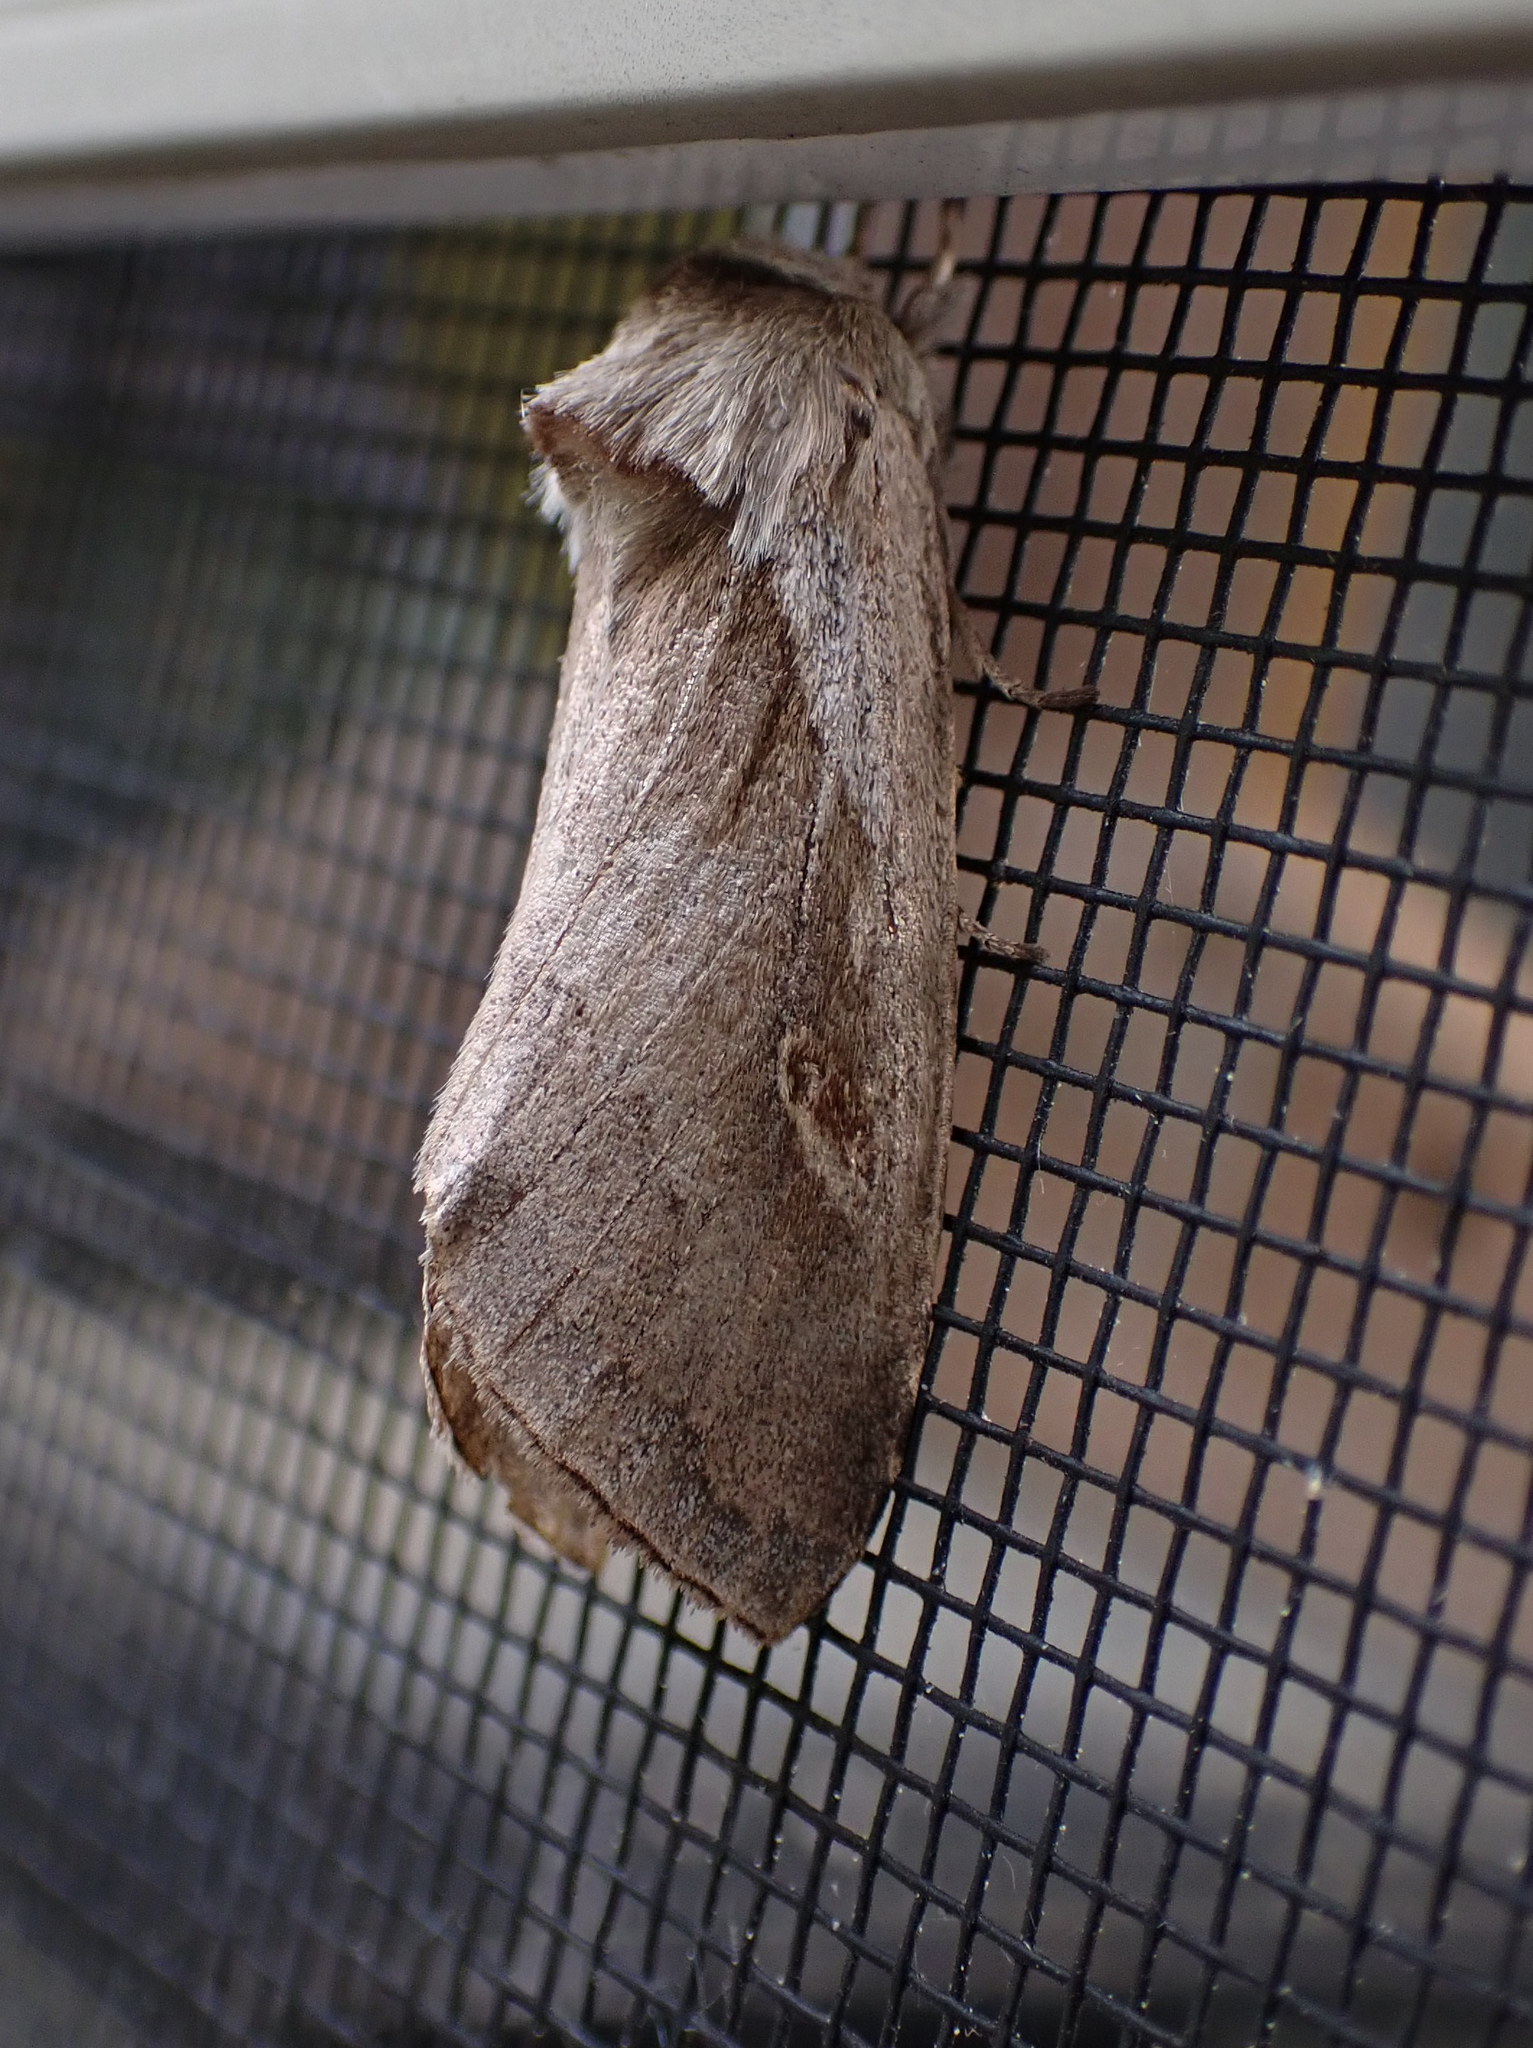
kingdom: Animalia
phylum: Arthropoda
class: Insecta
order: Lepidoptera
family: Noctuidae
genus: Bellura
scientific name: Bellura obliqua
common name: Cattail borer moth
